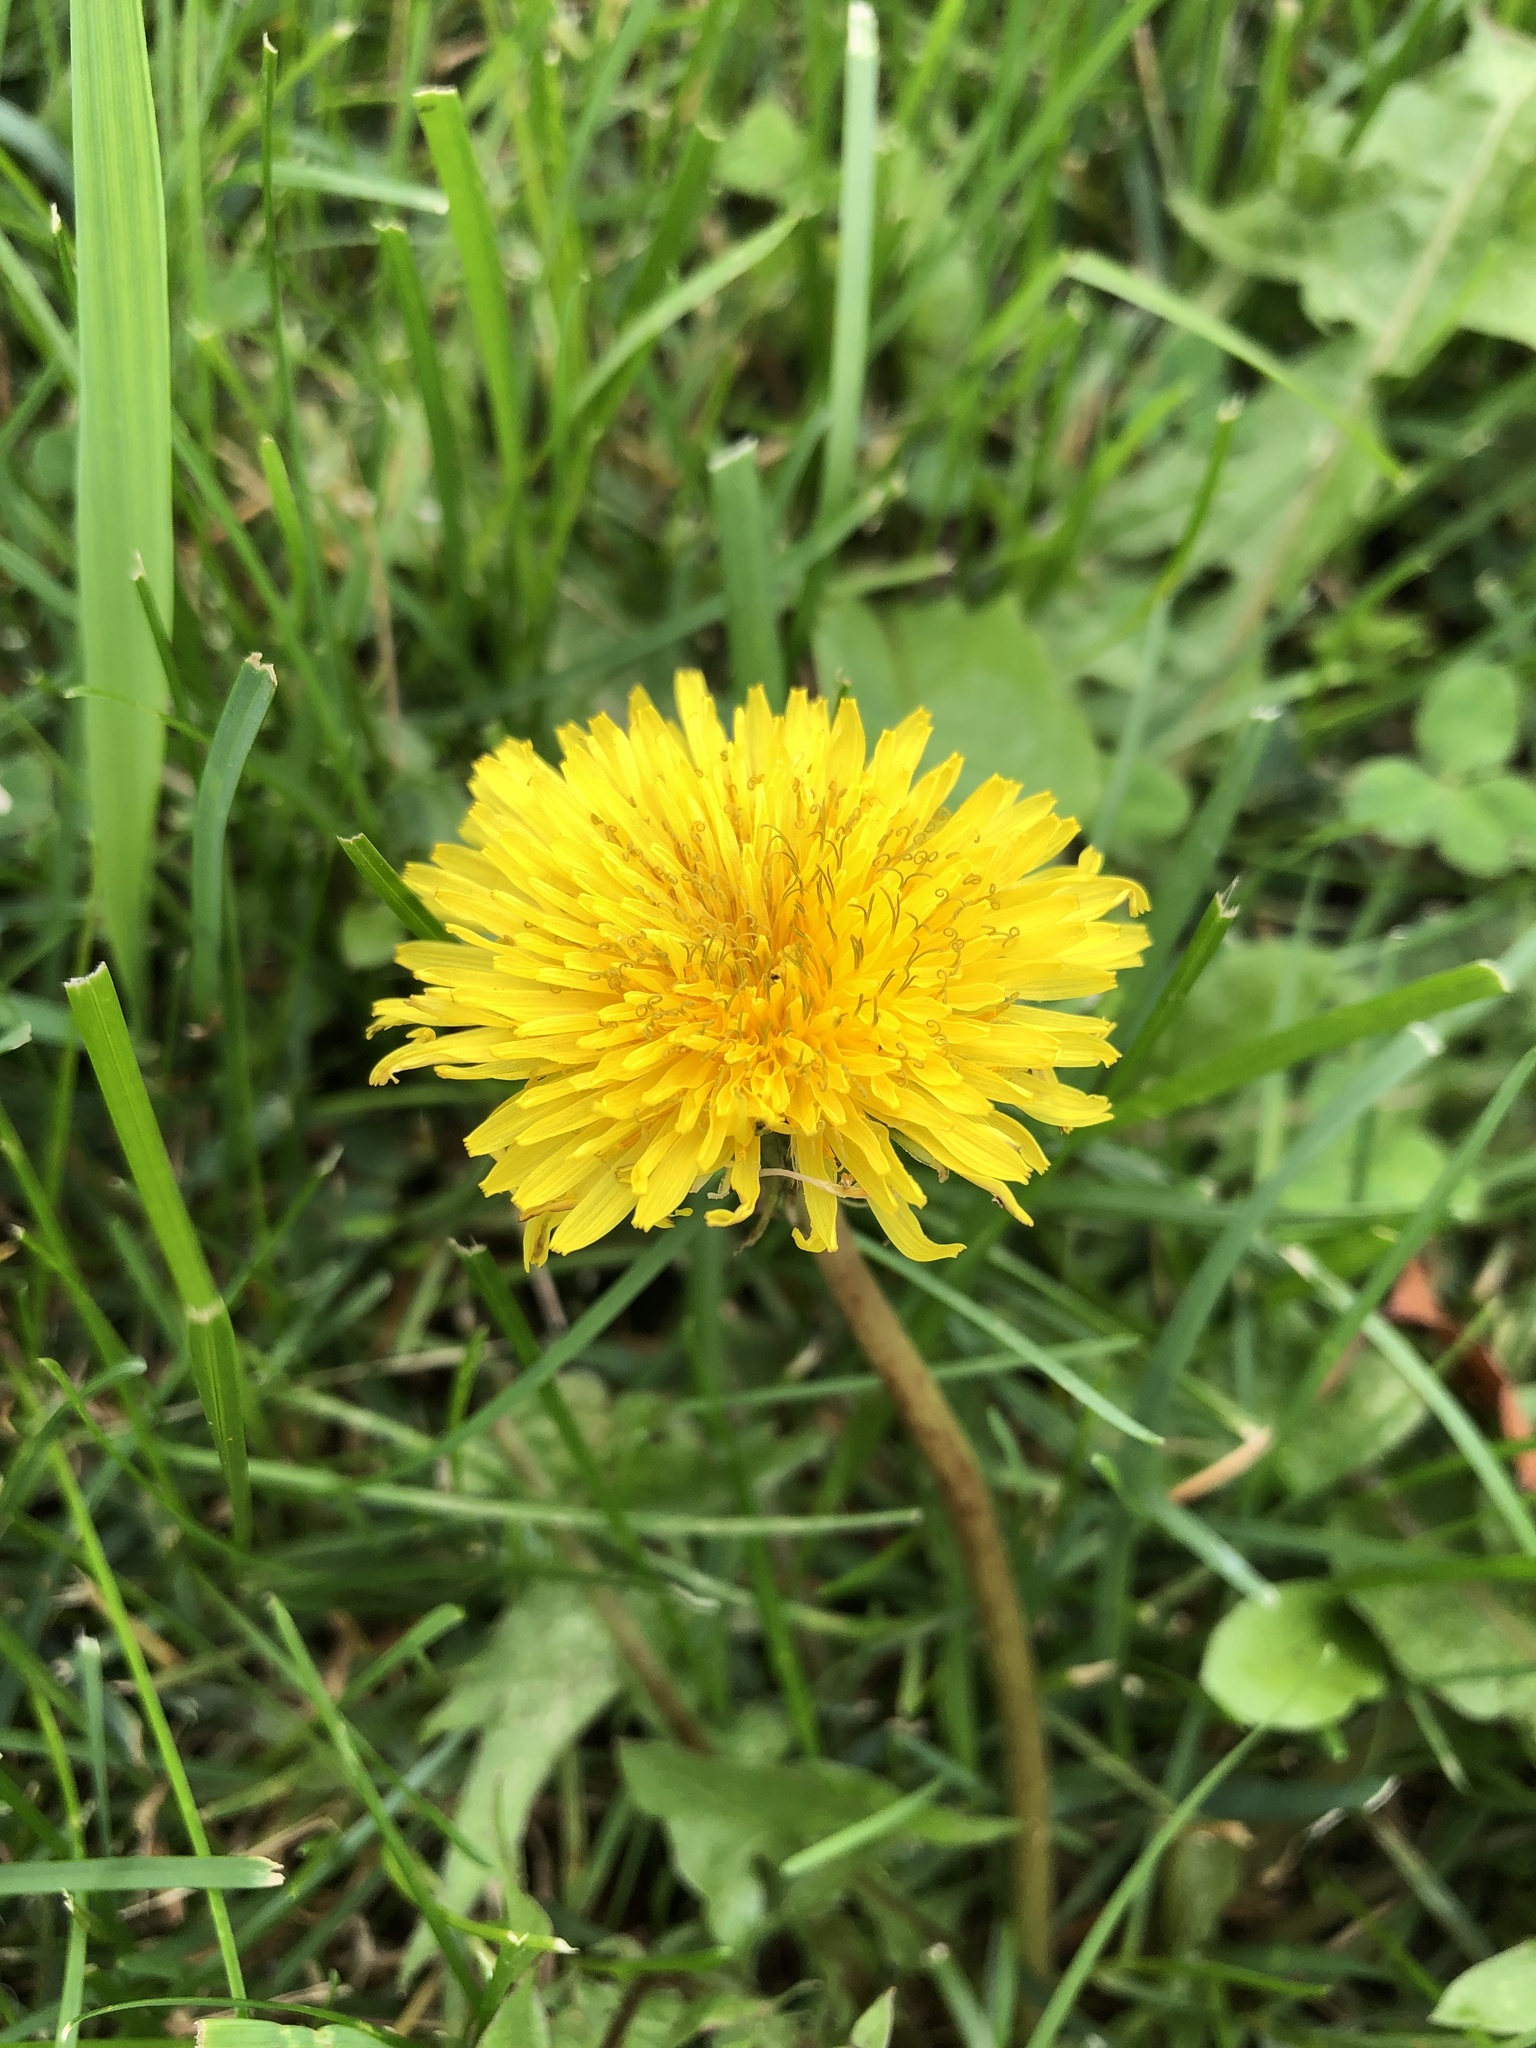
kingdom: Plantae
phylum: Tracheophyta
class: Magnoliopsida
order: Asterales
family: Asteraceae
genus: Taraxacum
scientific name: Taraxacum officinale
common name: Common dandelion
